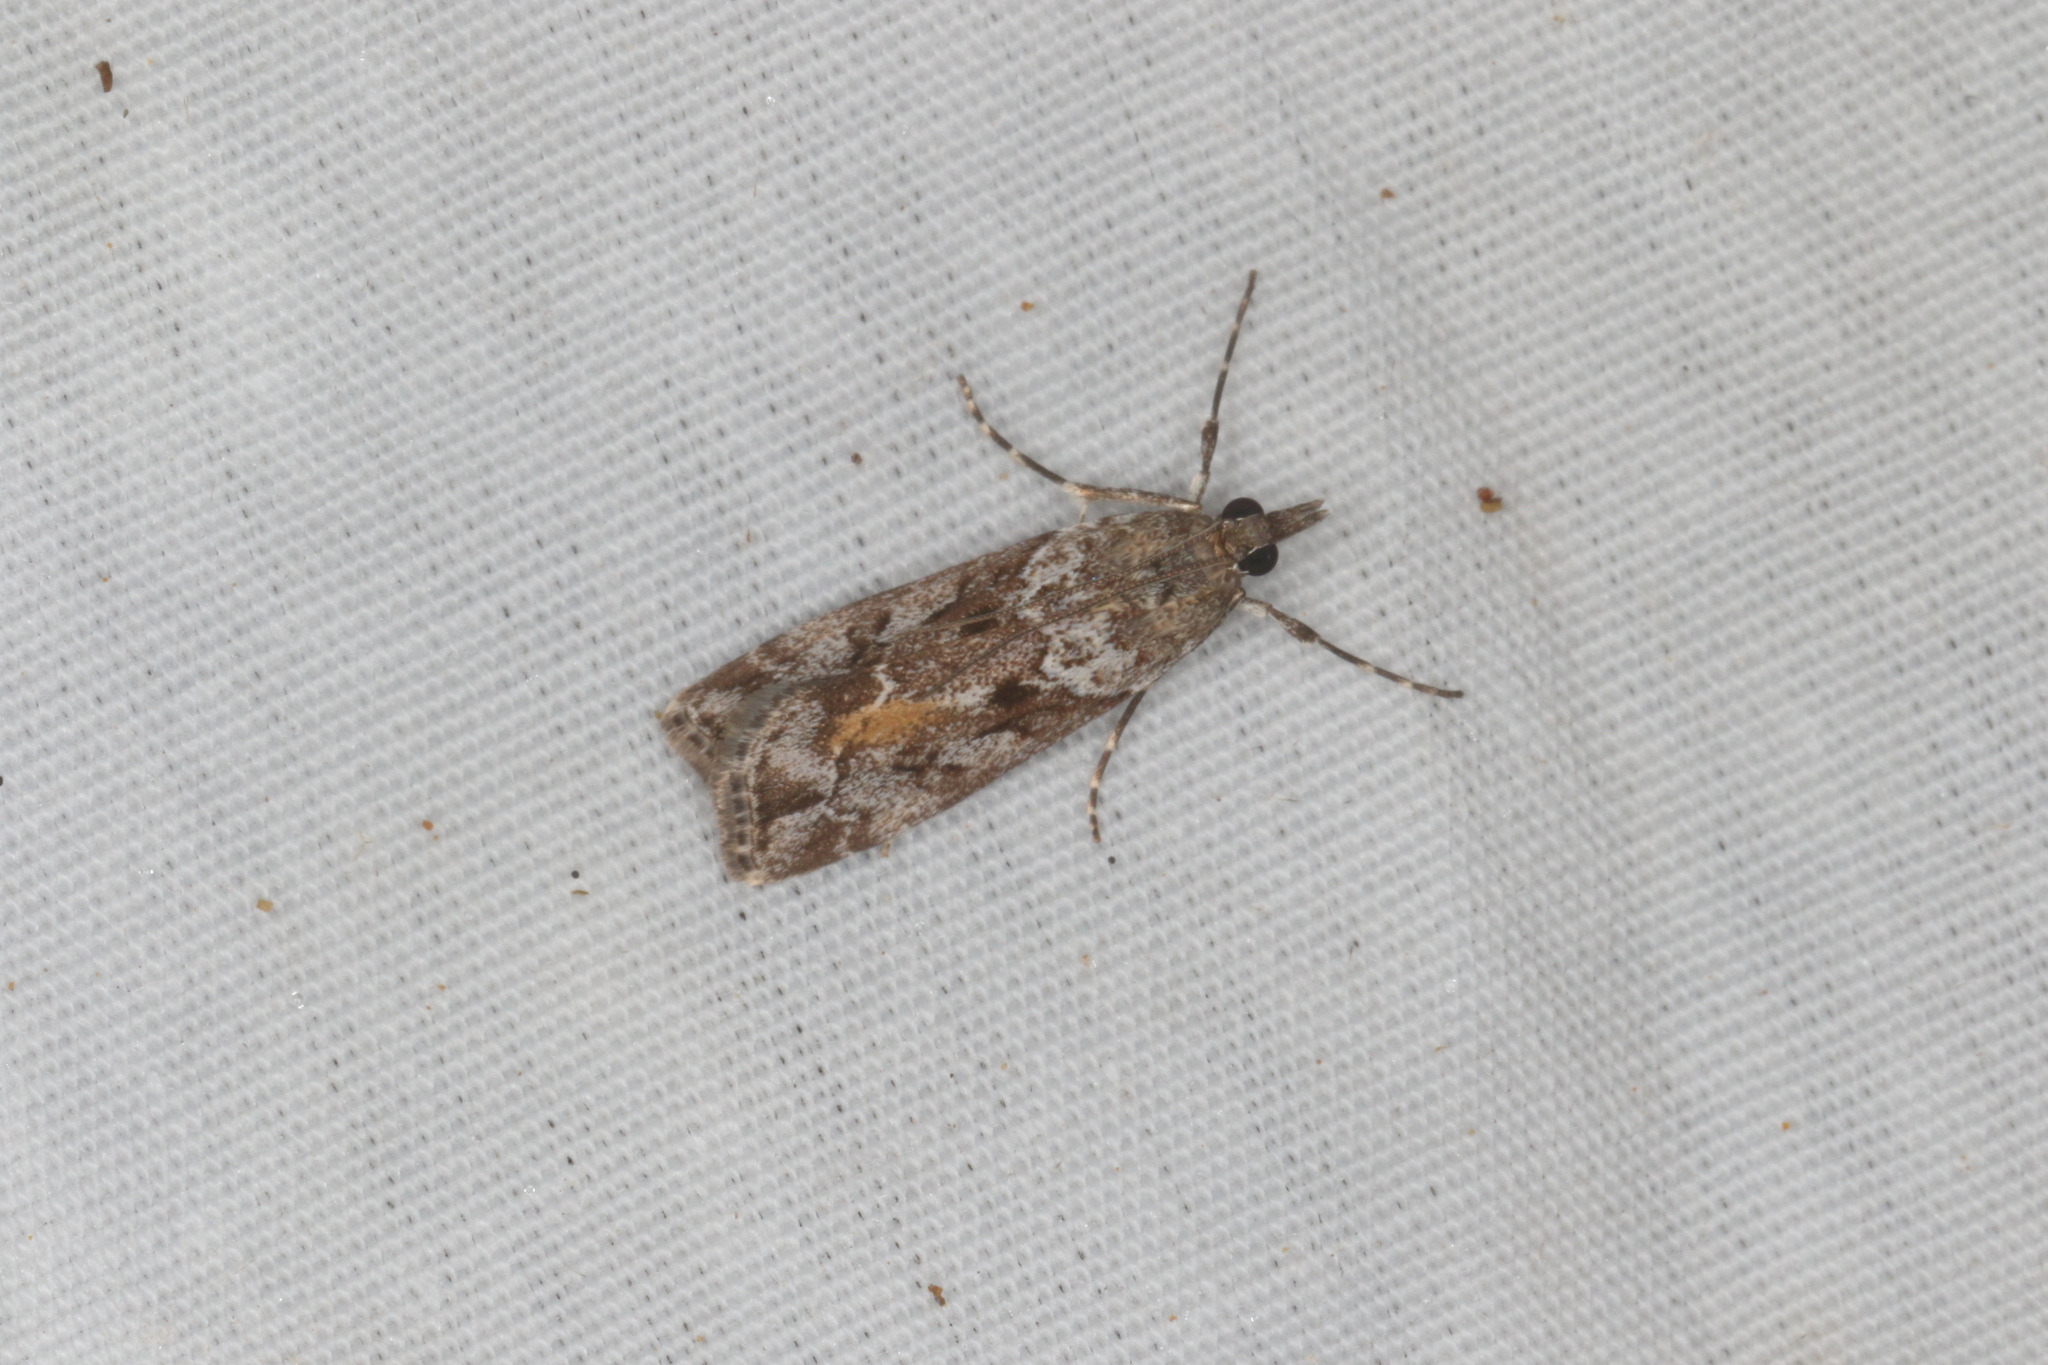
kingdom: Animalia
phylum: Arthropoda
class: Insecta
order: Lepidoptera
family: Crambidae
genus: Eudonia
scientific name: Eudonia submarginalis
